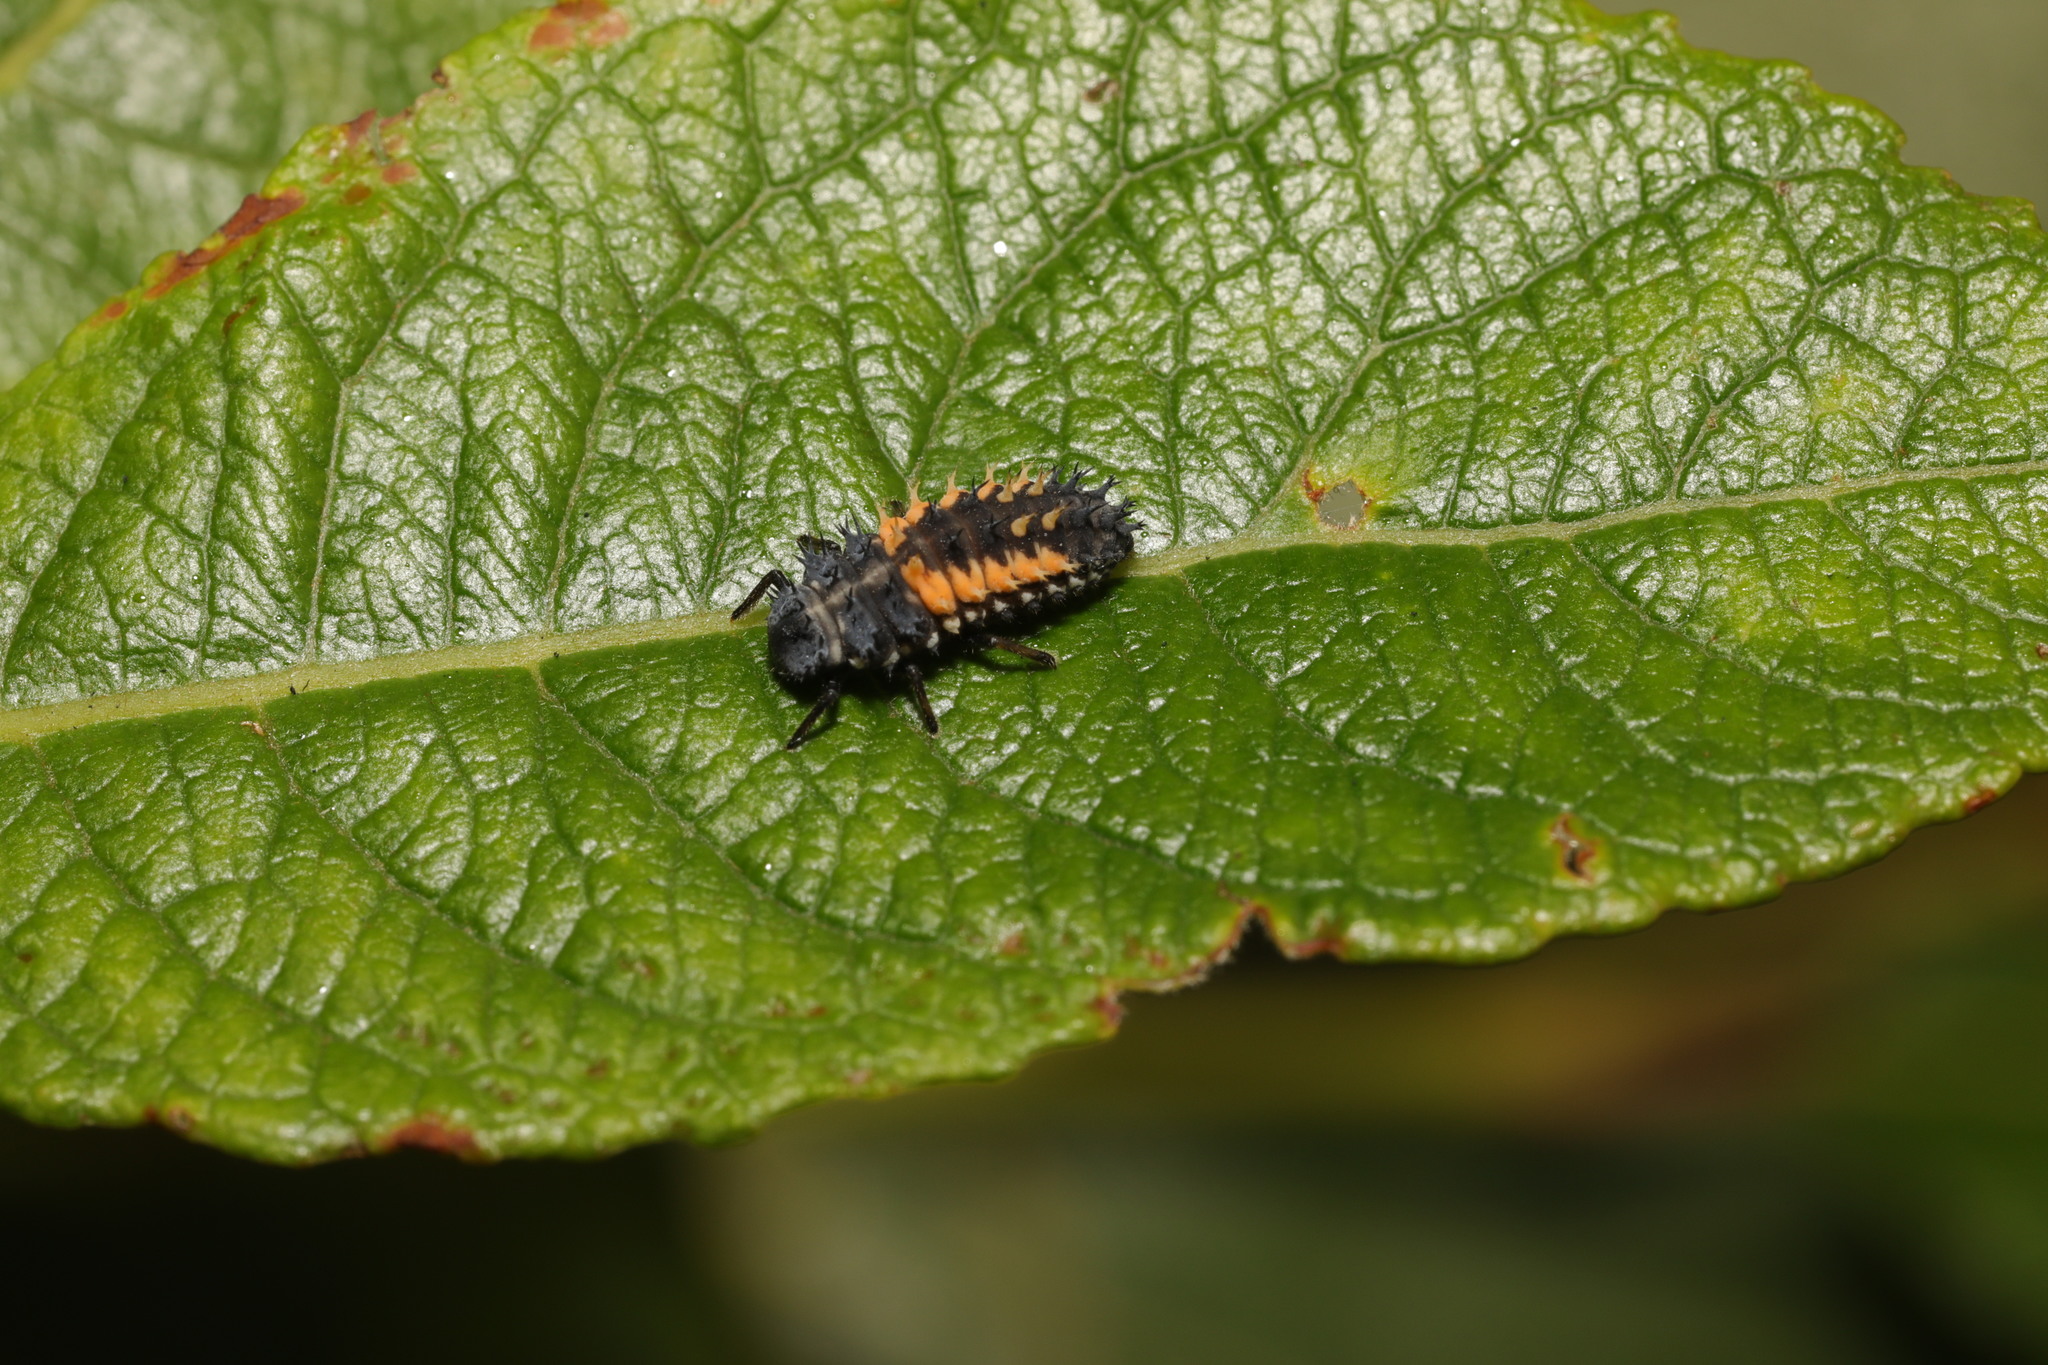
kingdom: Animalia
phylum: Arthropoda
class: Insecta
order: Coleoptera
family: Coccinellidae
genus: Harmonia
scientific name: Harmonia axyridis
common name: Harlequin ladybird
